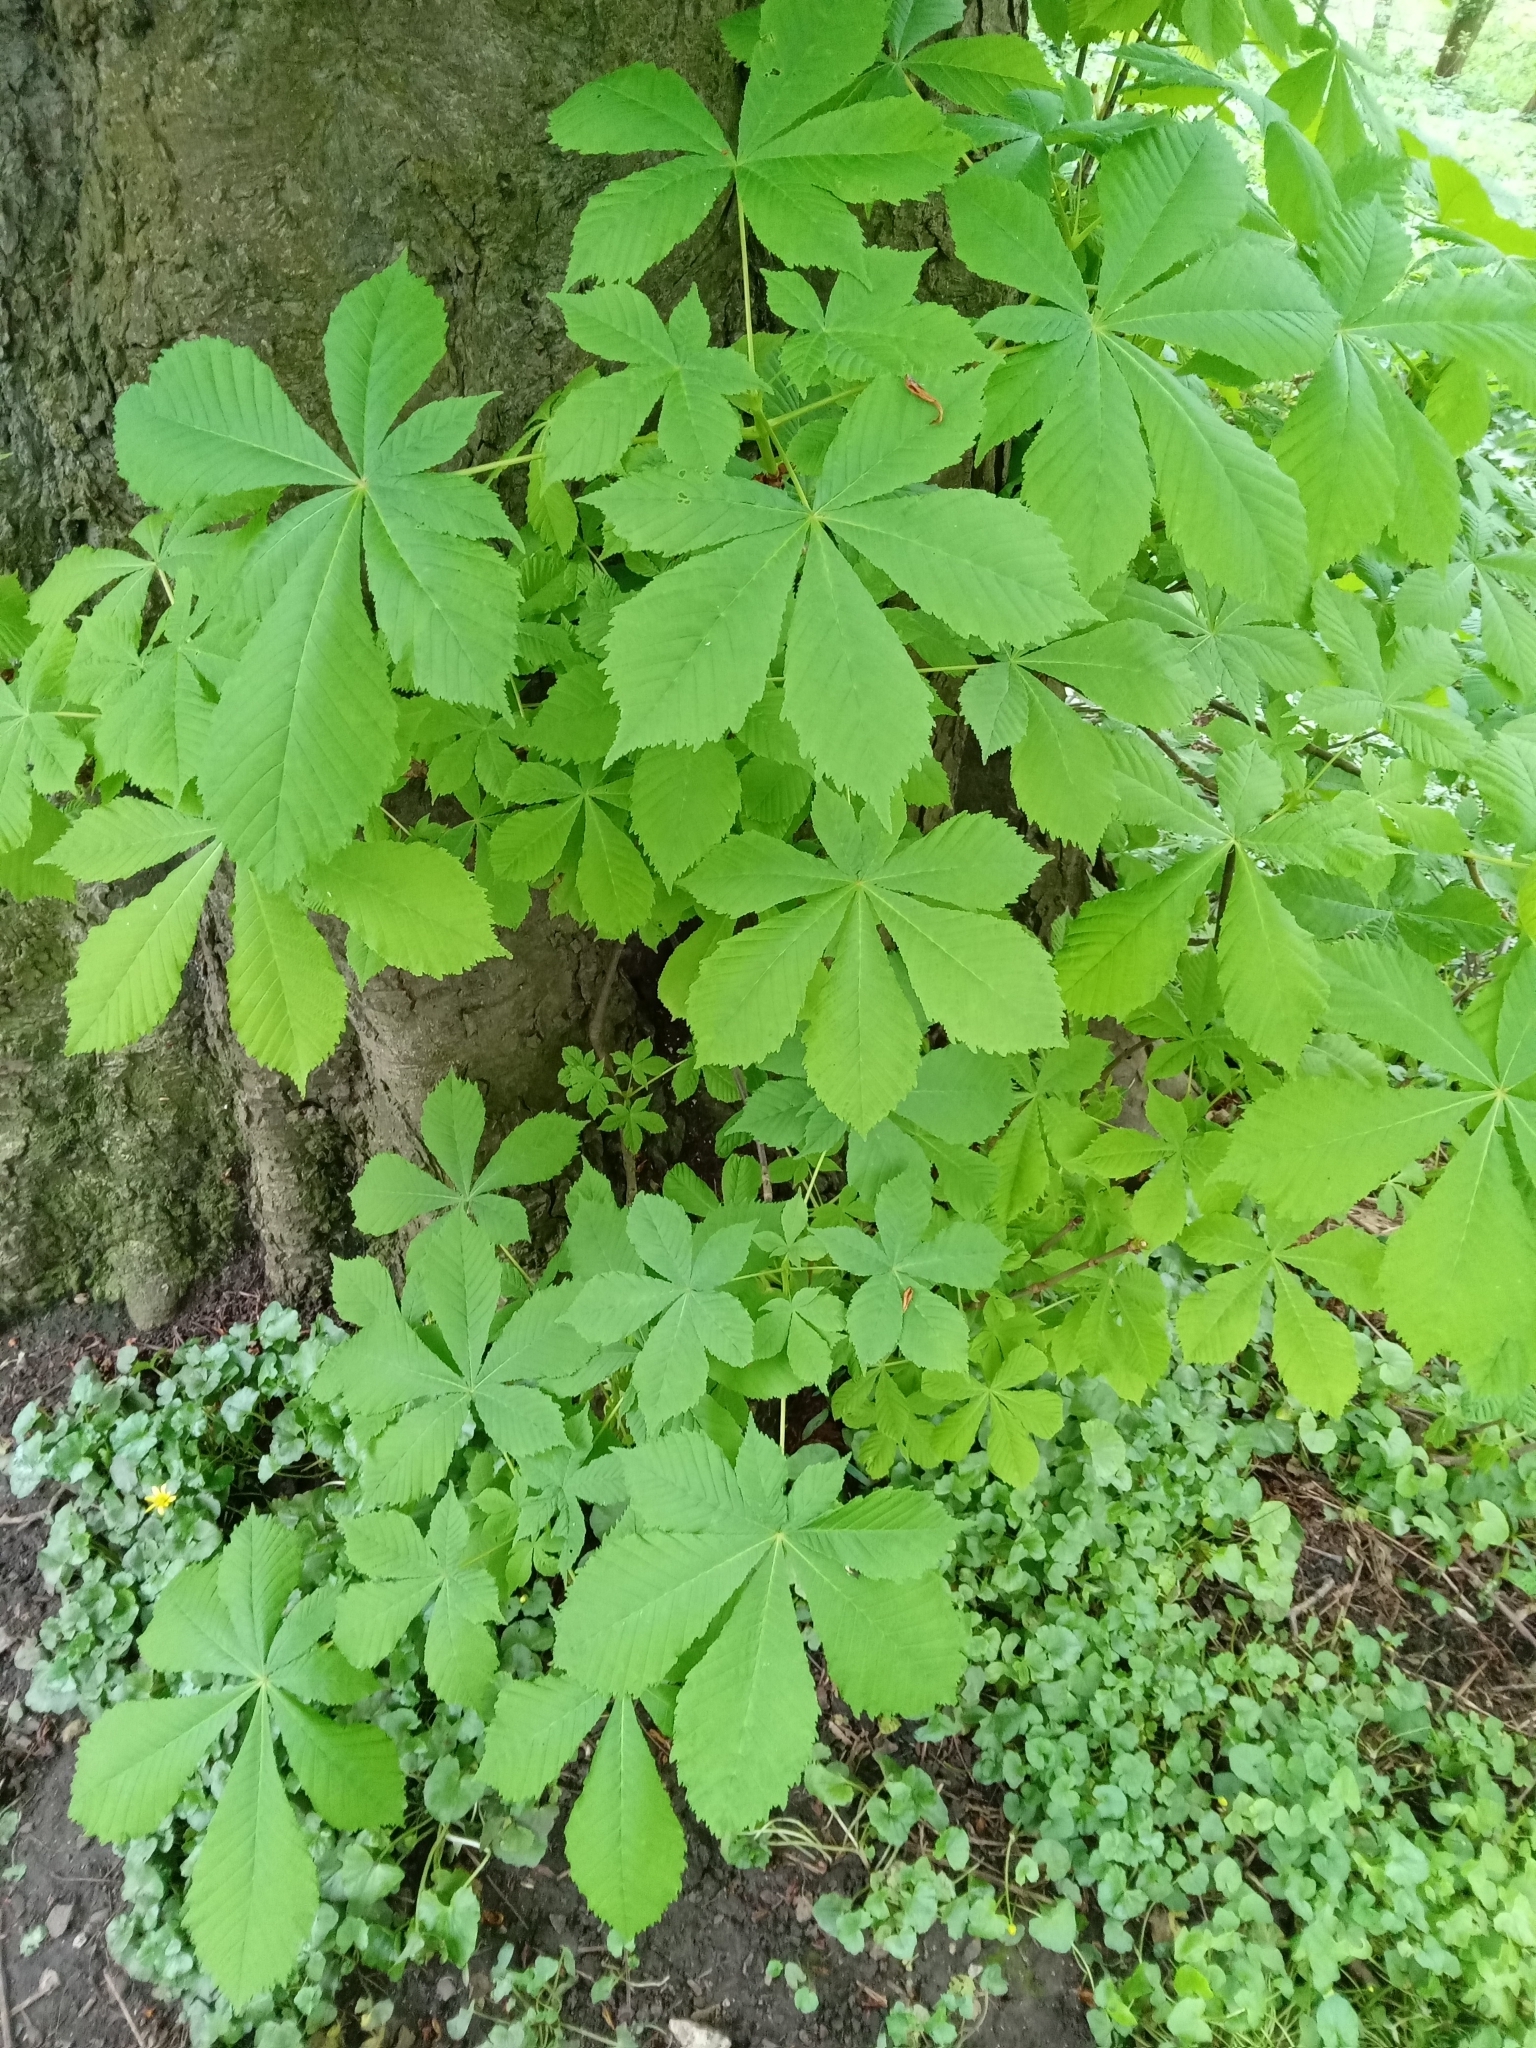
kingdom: Plantae
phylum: Tracheophyta
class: Magnoliopsida
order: Sapindales
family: Sapindaceae
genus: Aesculus
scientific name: Aesculus hippocastanum
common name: Horse-chestnut
